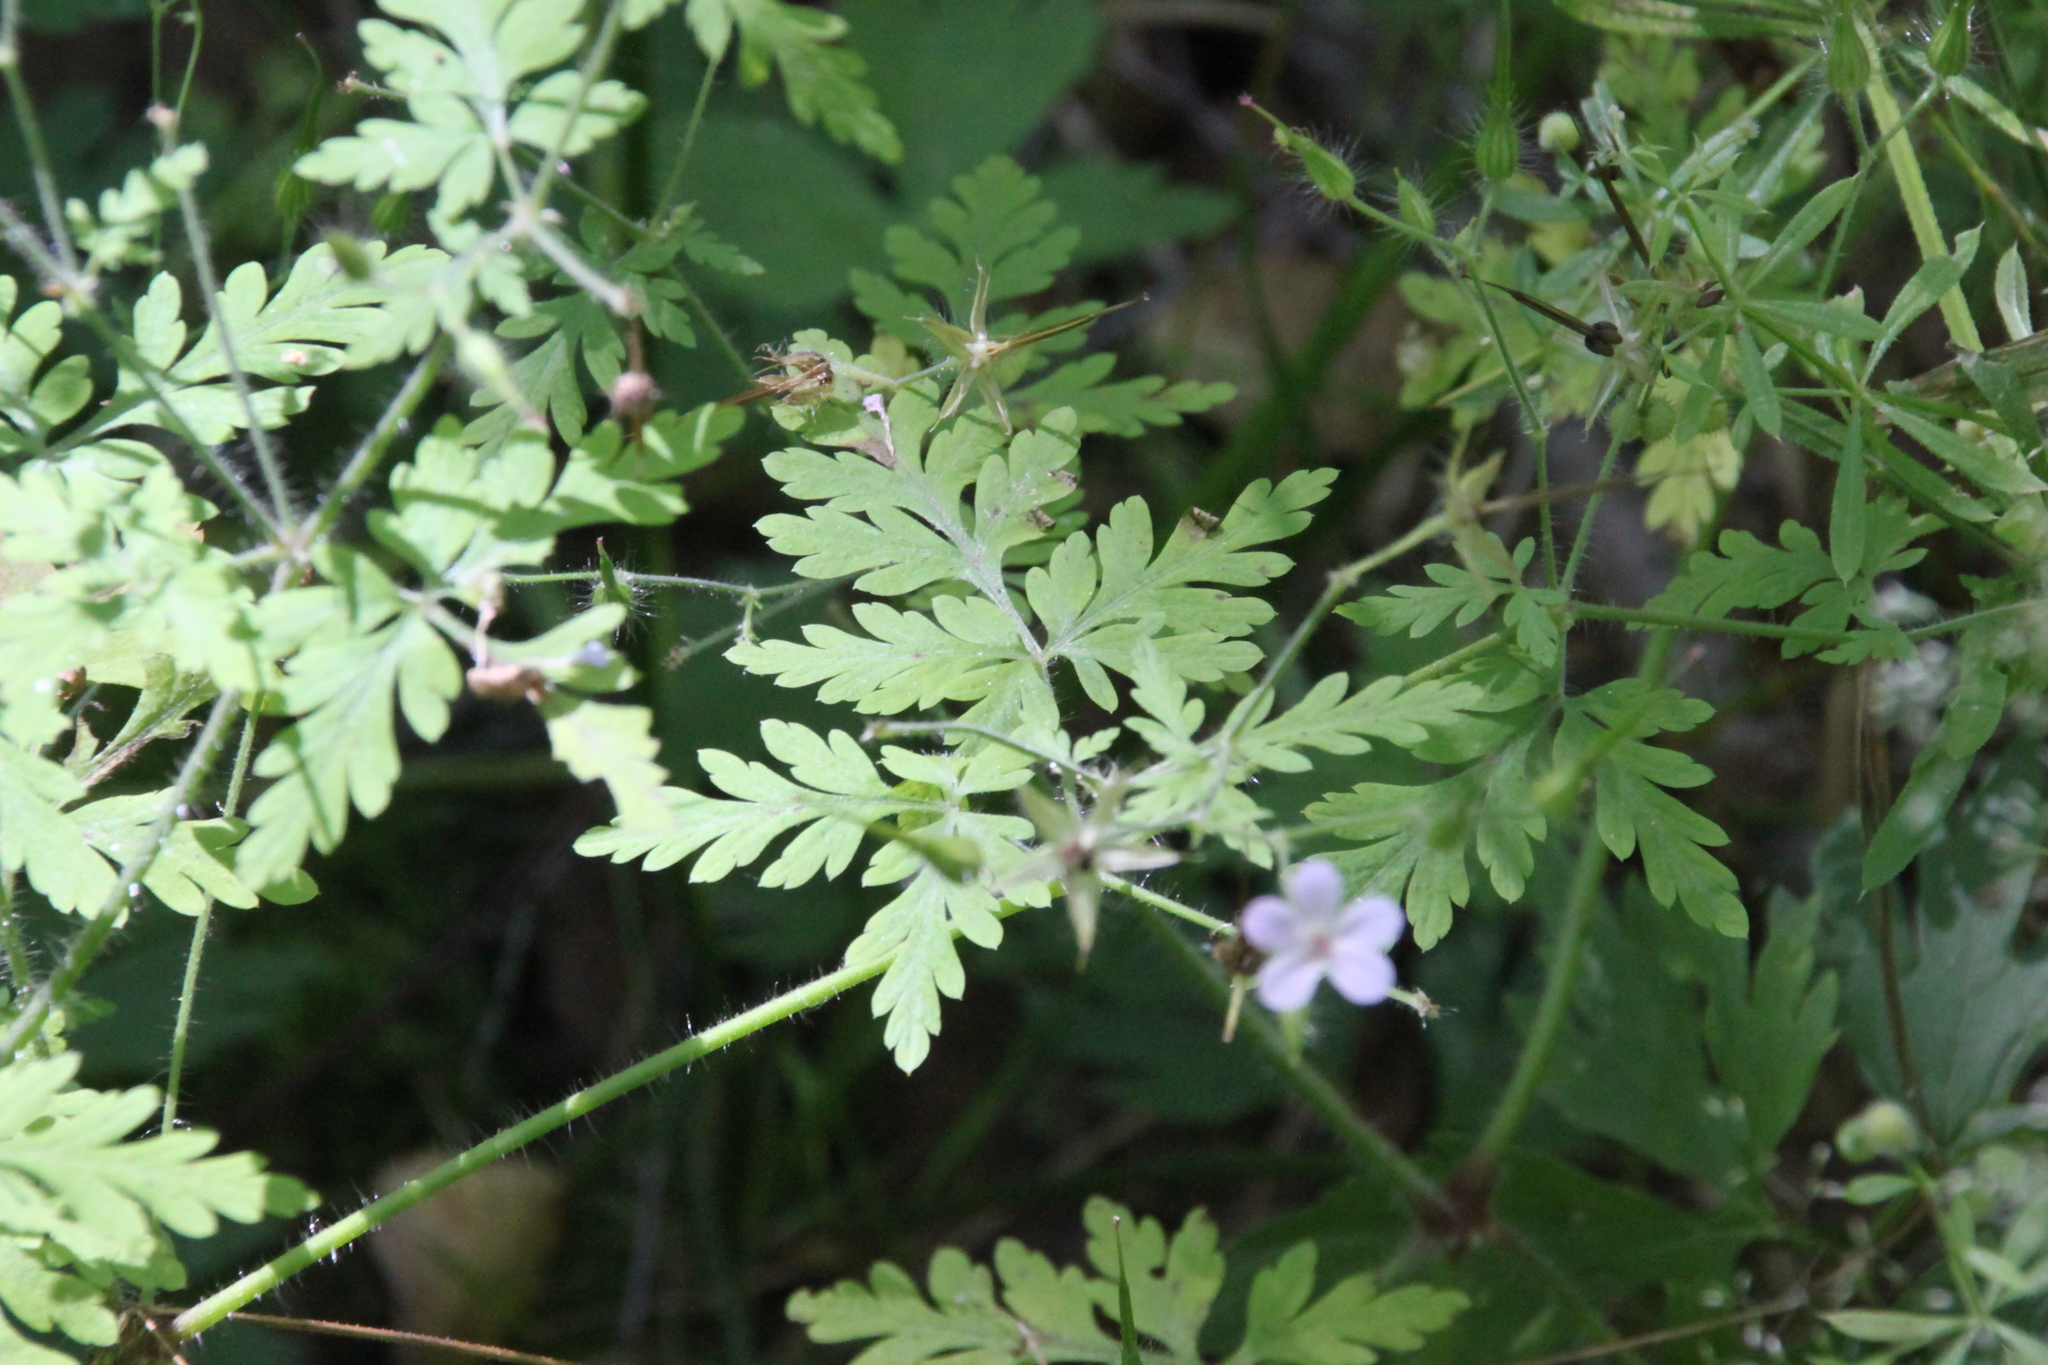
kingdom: Plantae
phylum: Tracheophyta
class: Magnoliopsida
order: Geraniales
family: Geraniaceae
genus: Geranium
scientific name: Geranium robertianum
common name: Herb-robert
